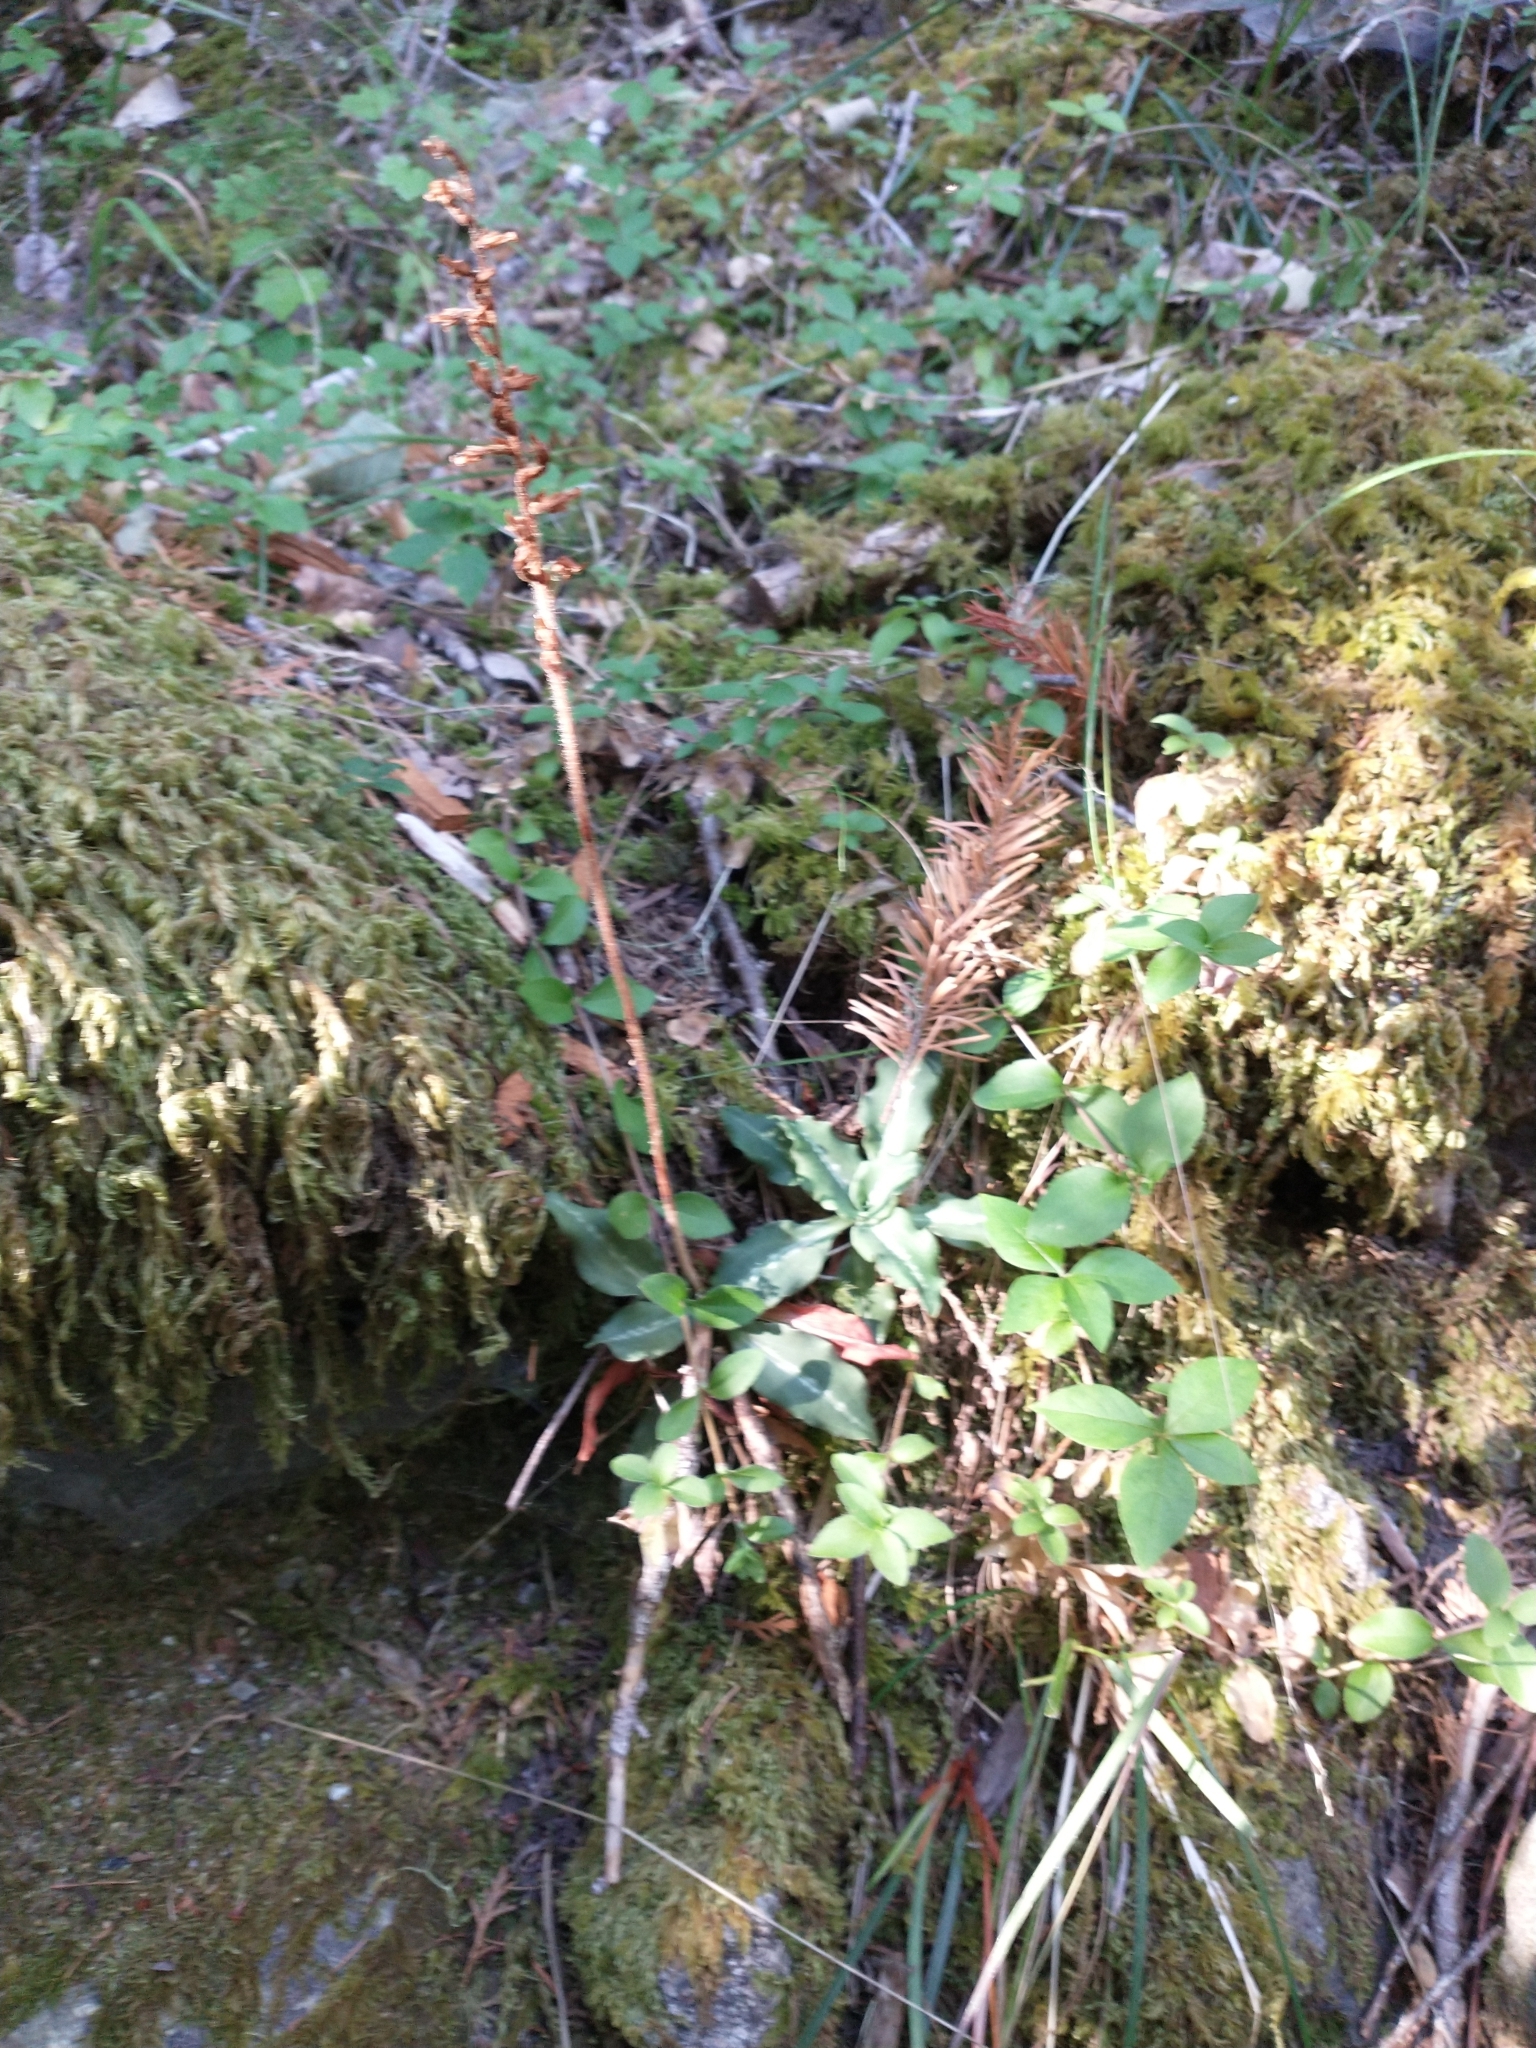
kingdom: Plantae
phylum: Tracheophyta
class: Liliopsida
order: Asparagales
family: Orchidaceae
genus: Goodyera
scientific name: Goodyera oblongifolia
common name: Giant rattlesnake-plantain
